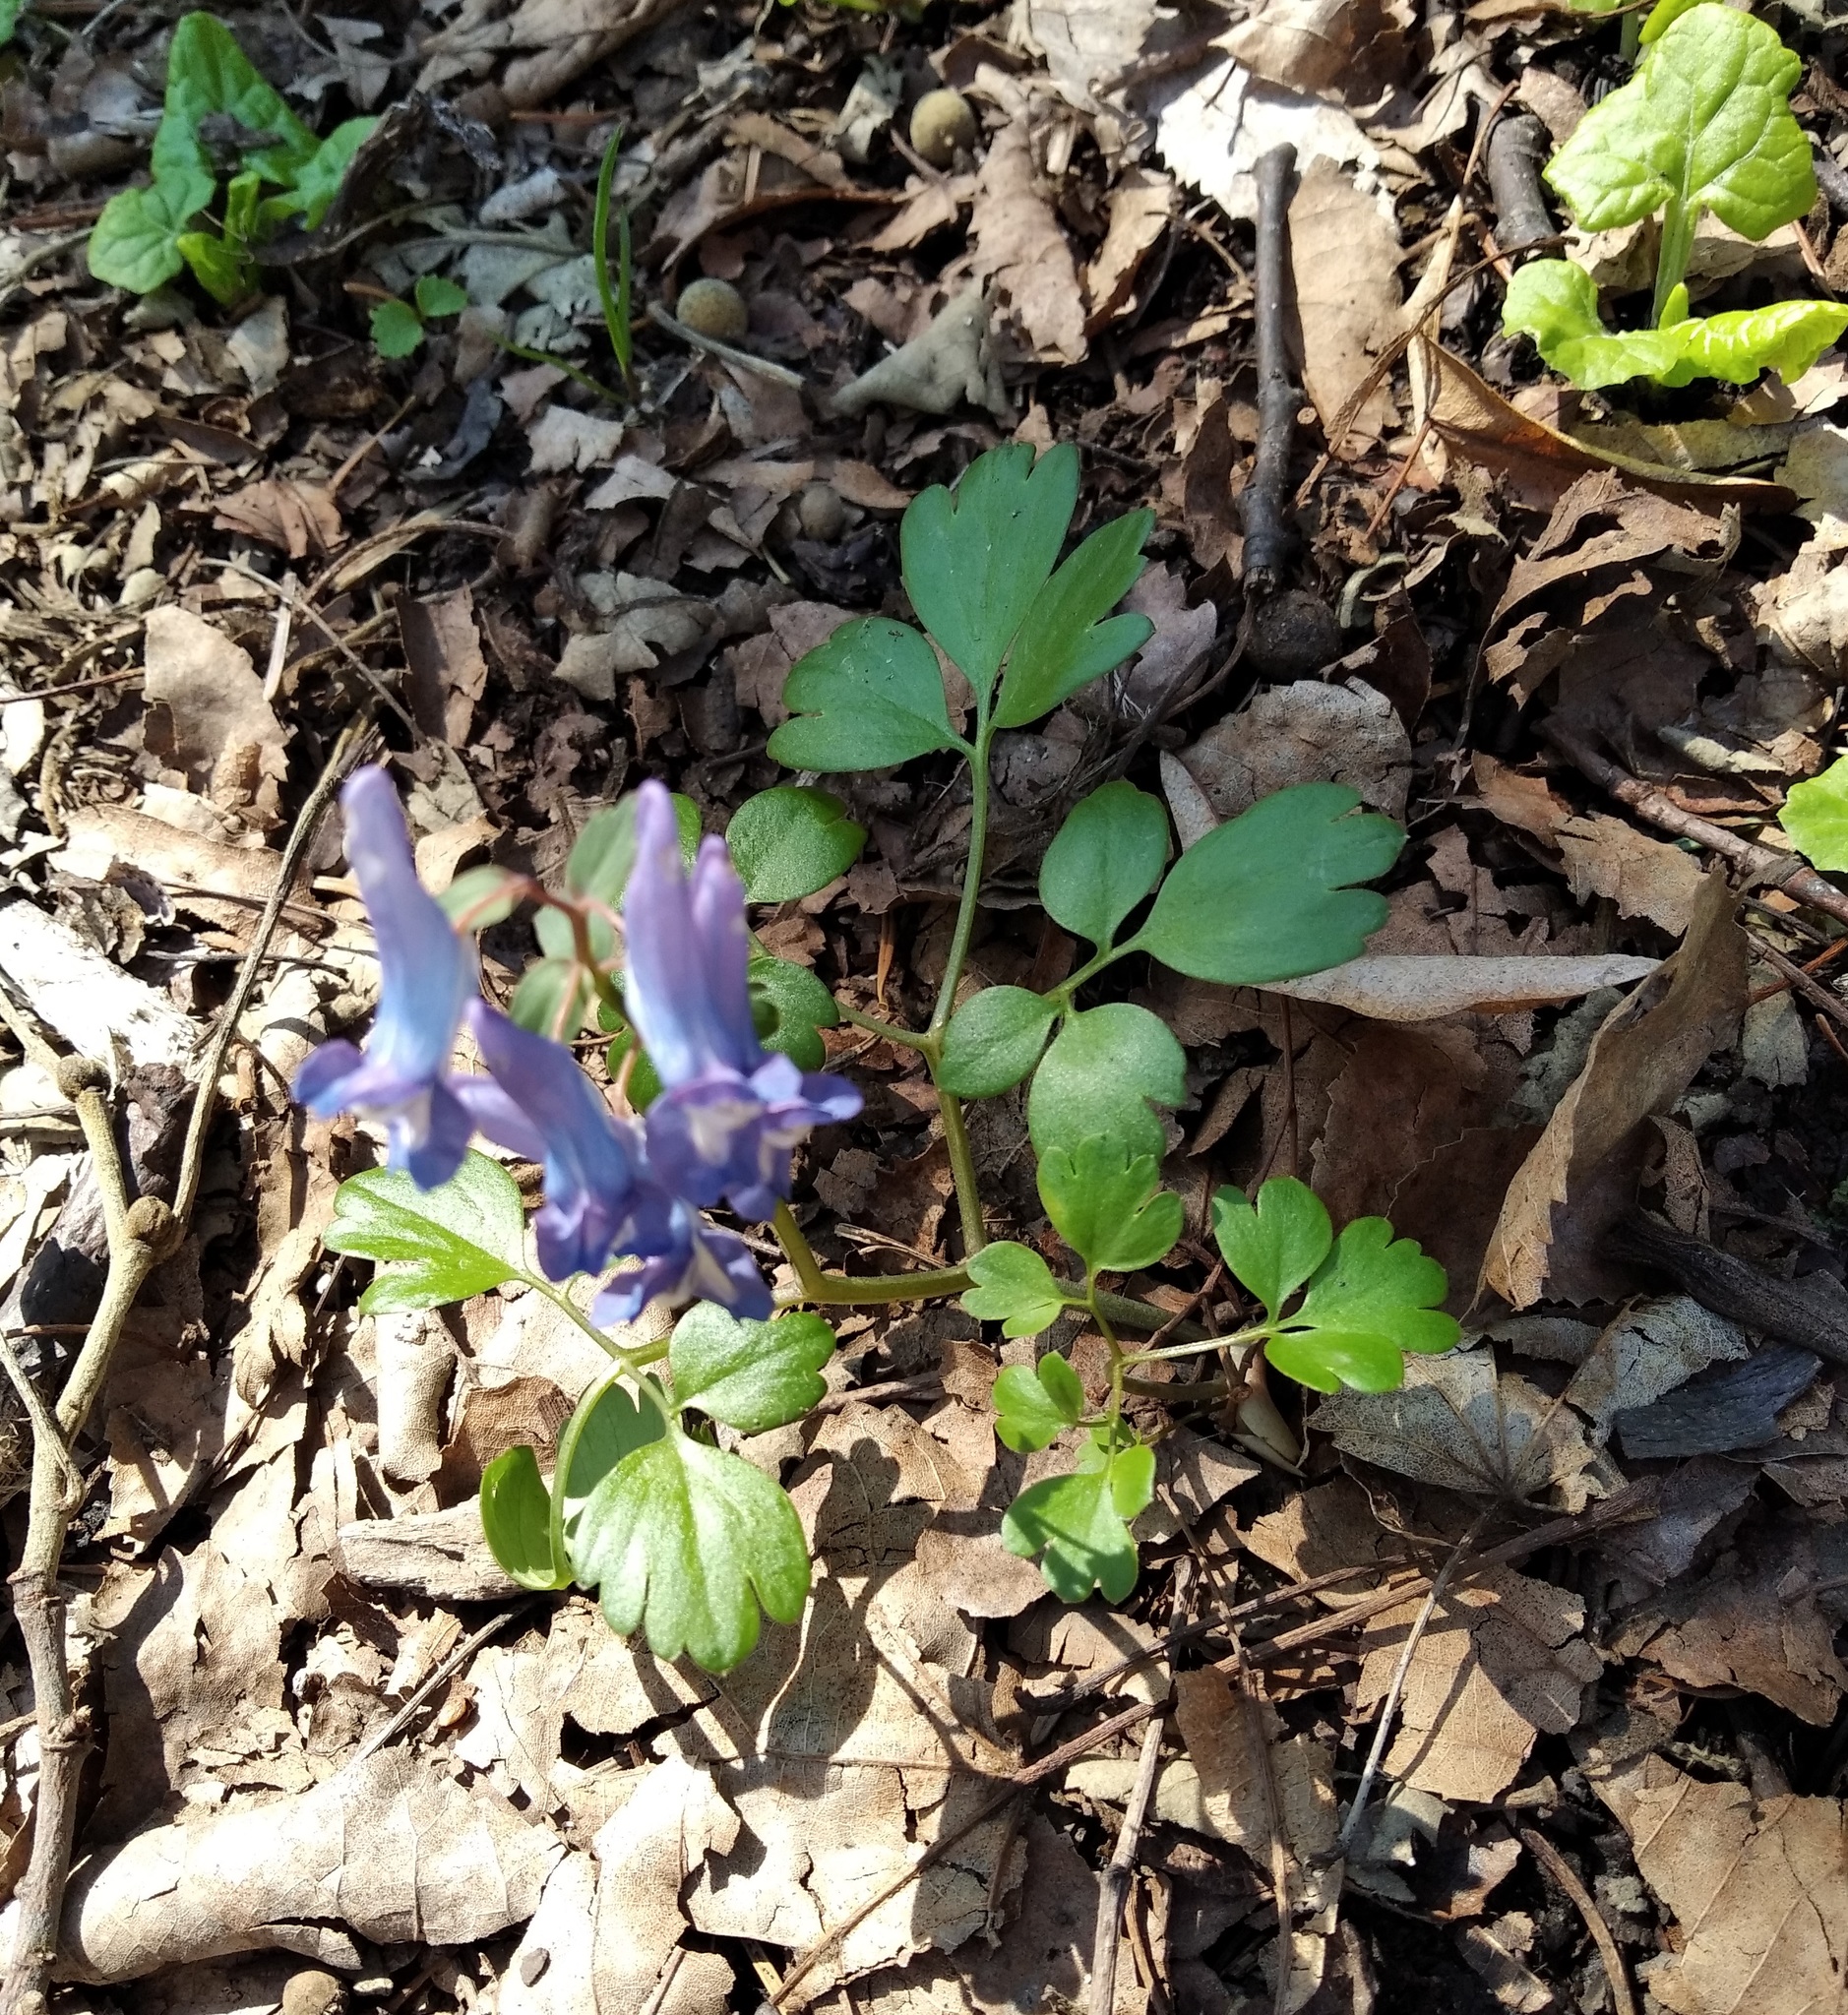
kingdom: Plantae
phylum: Tracheophyta
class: Magnoliopsida
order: Ranunculales
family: Papaveraceae
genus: Corydalis
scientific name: Corydalis ambigua
